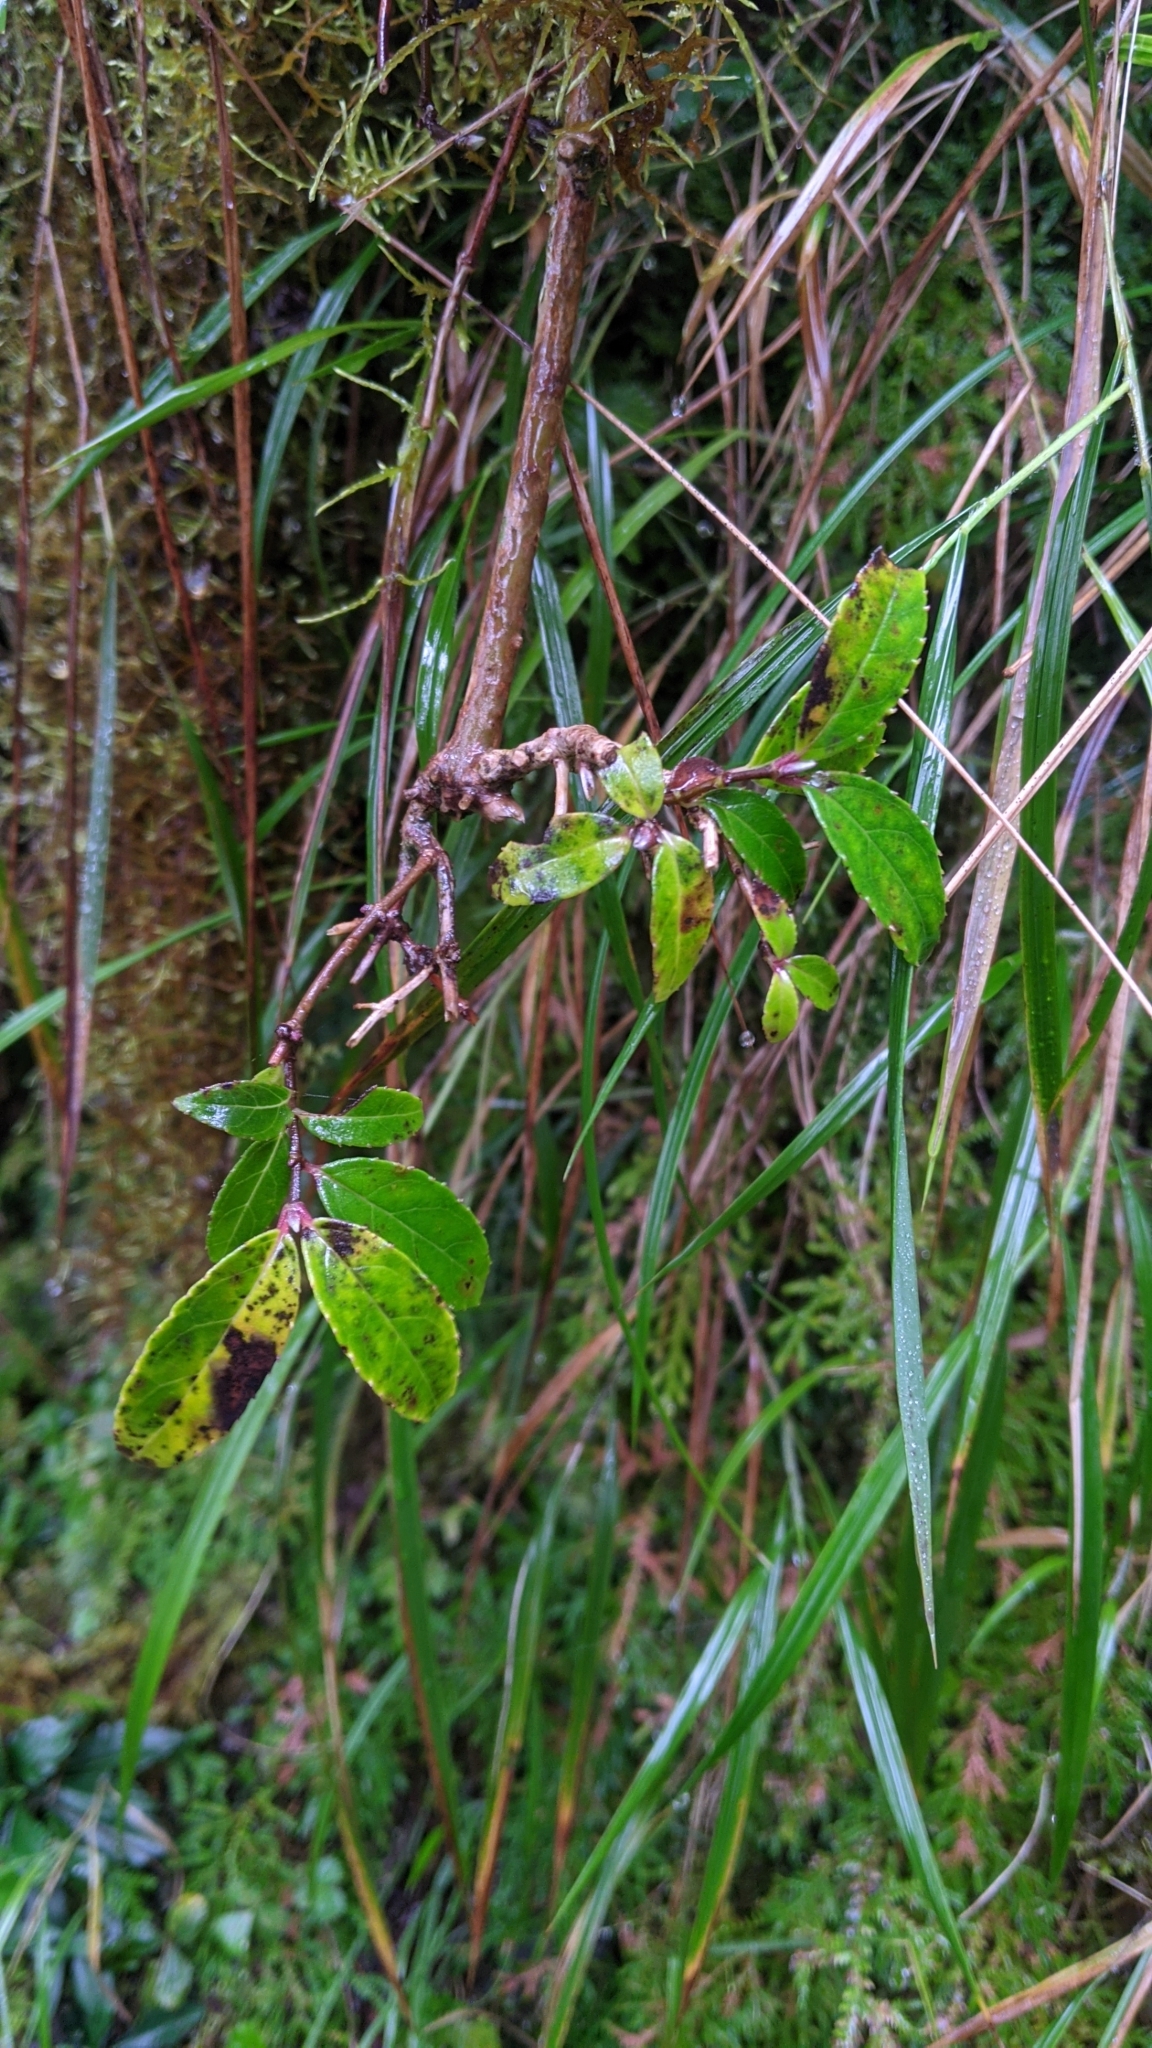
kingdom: Plantae
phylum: Tracheophyta
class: Magnoliopsida
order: Cornales
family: Hydrangeaceae
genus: Deutzia
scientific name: Deutzia pulchra
